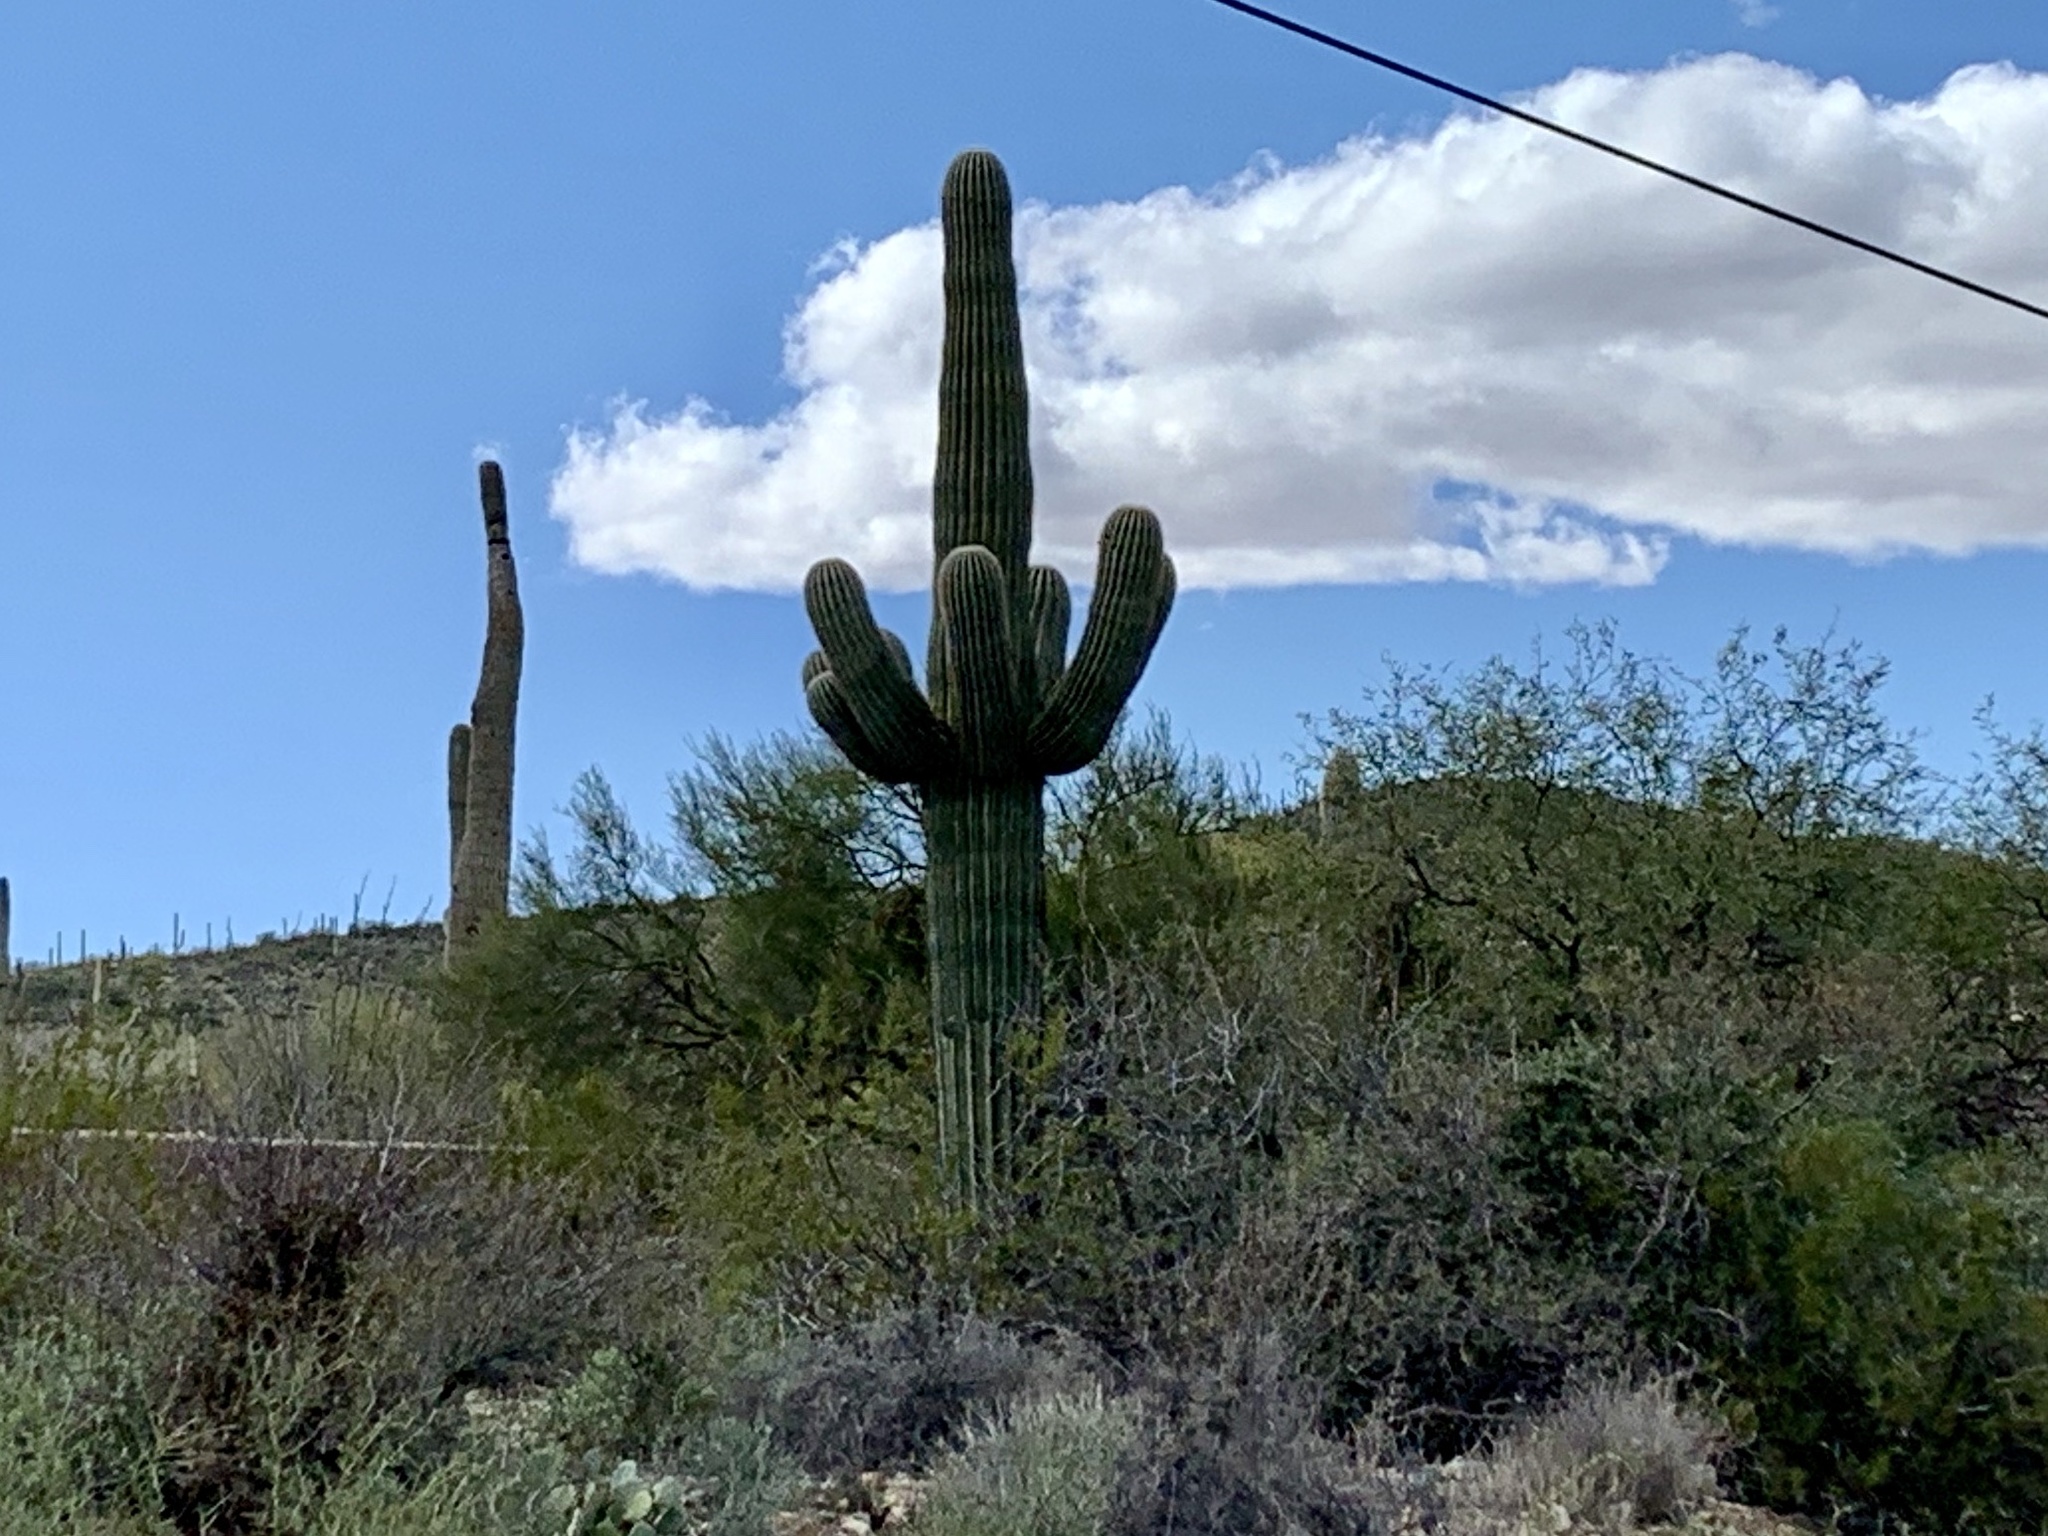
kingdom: Plantae
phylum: Tracheophyta
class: Magnoliopsida
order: Caryophyllales
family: Cactaceae
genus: Carnegiea
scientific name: Carnegiea gigantea
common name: Saguaro
